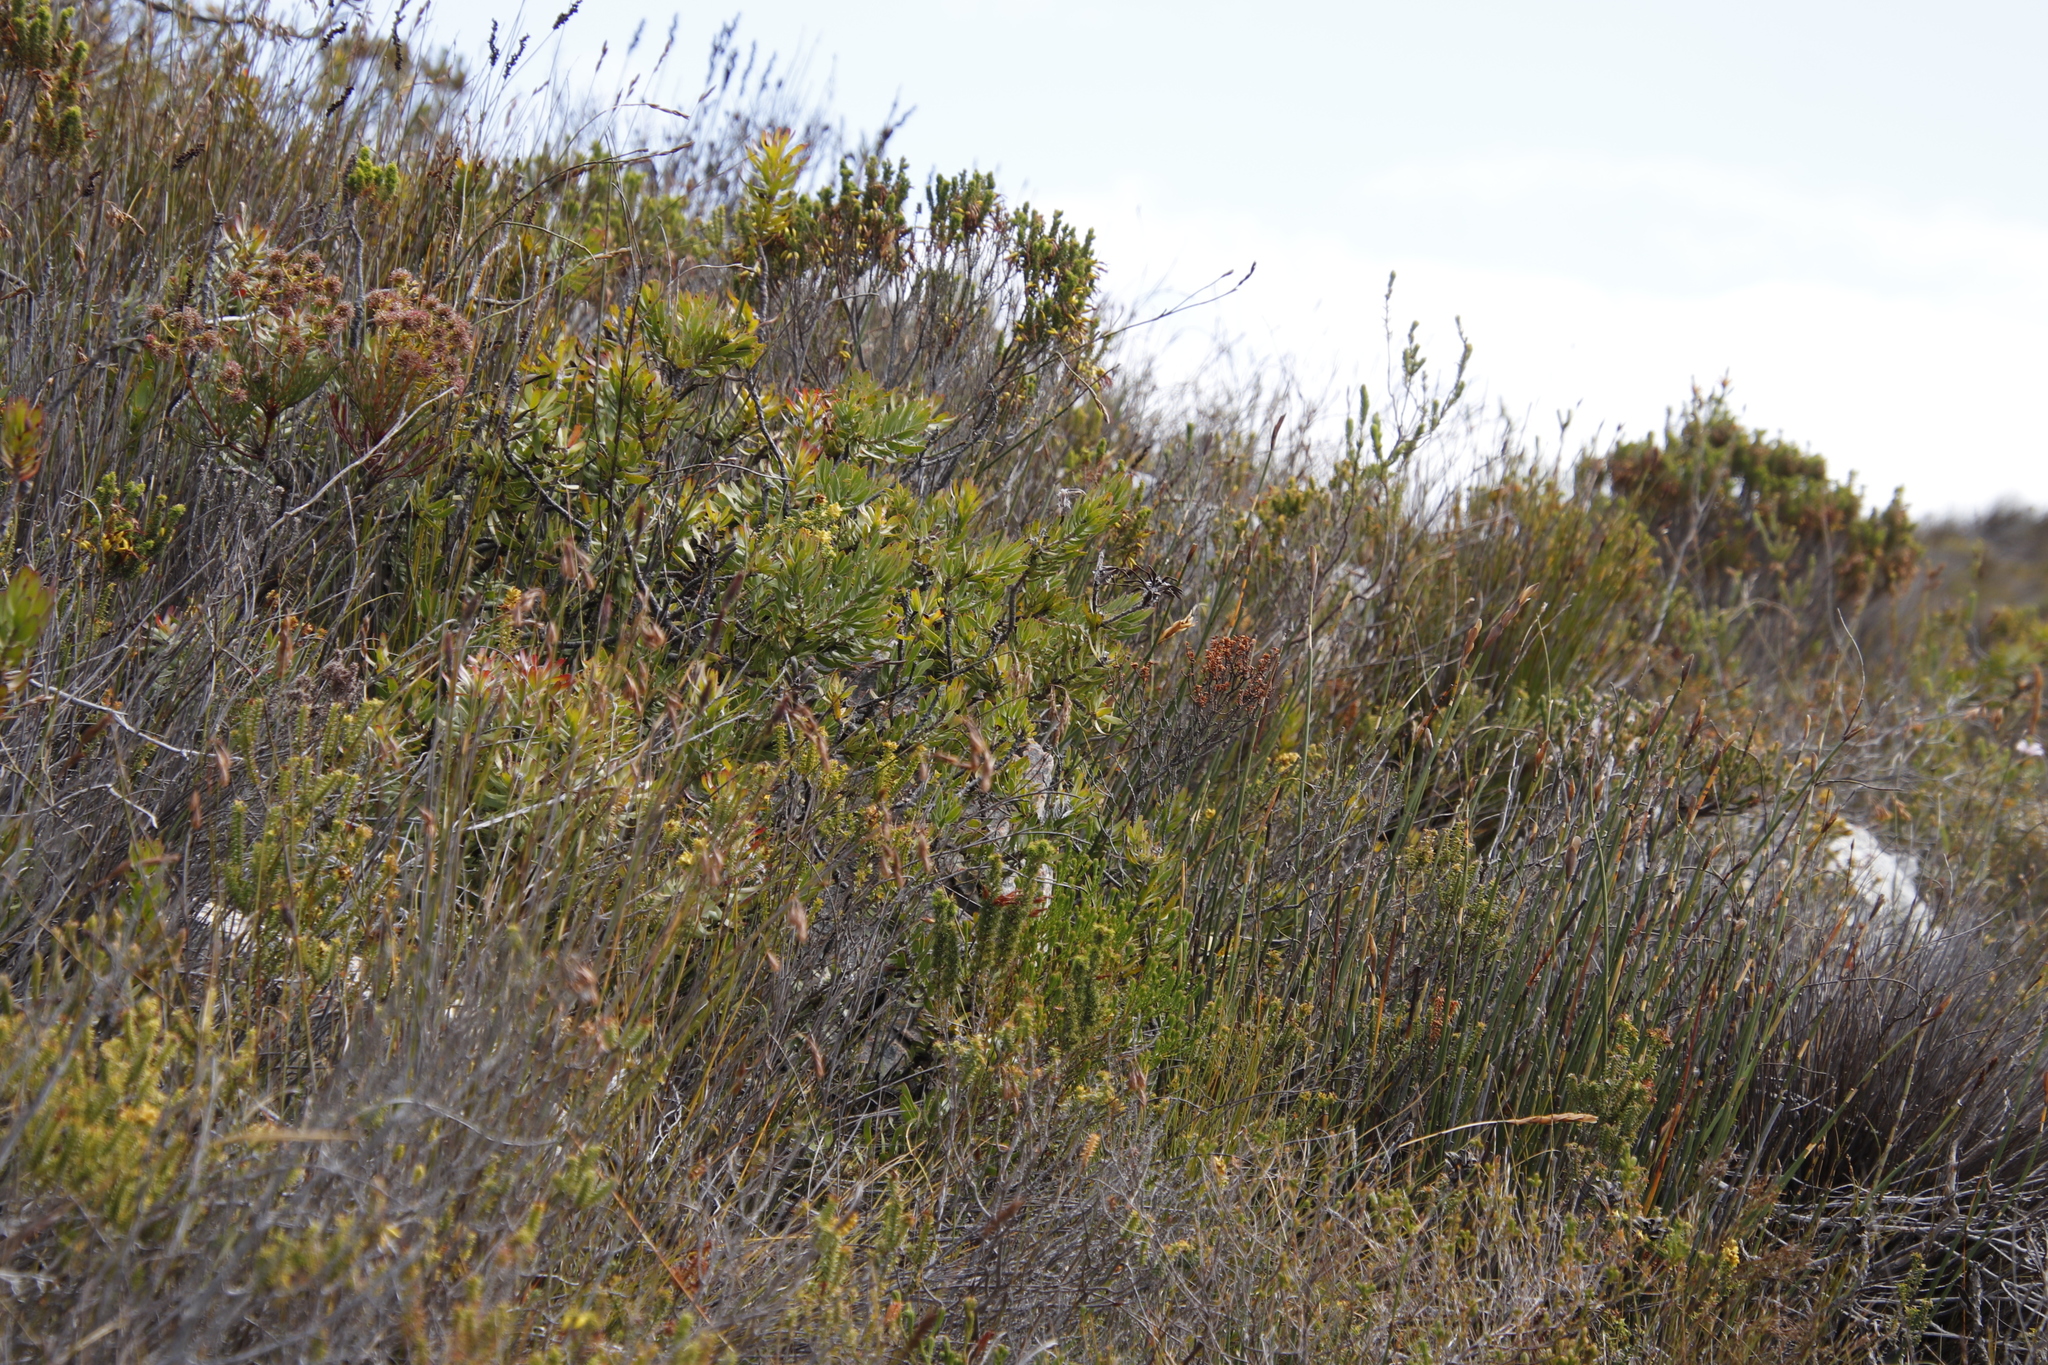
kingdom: Plantae
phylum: Tracheophyta
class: Magnoliopsida
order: Proteales
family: Proteaceae
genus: Mimetes
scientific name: Mimetes cucullatus
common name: Common pagoda
